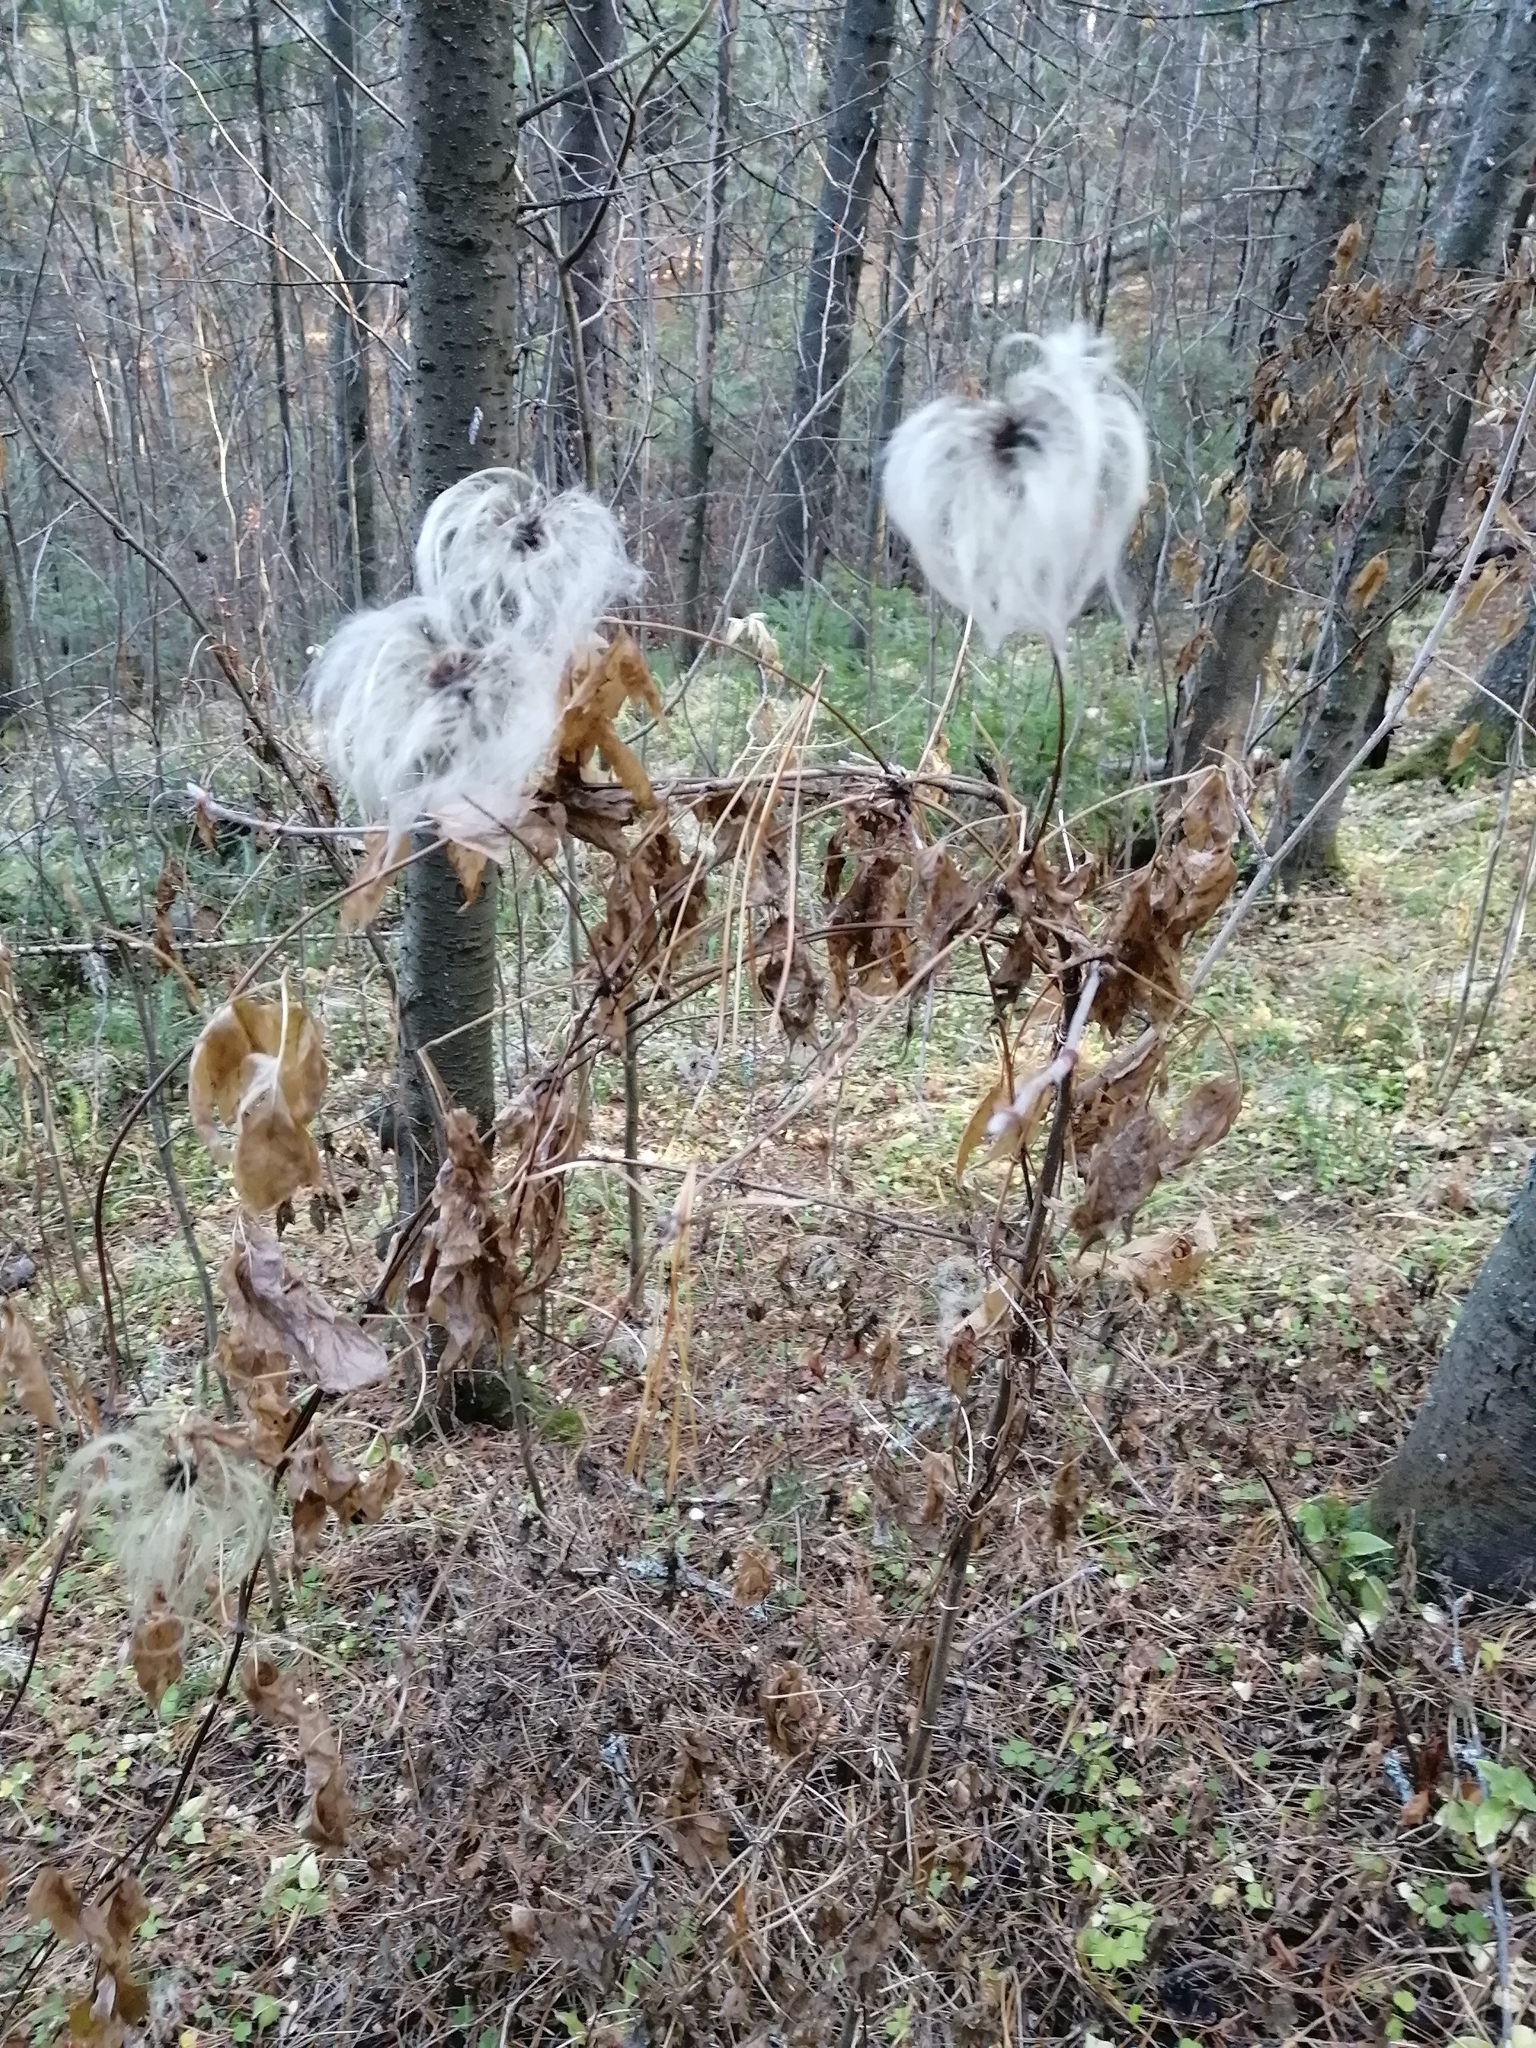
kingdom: Plantae
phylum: Tracheophyta
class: Magnoliopsida
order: Ranunculales
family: Ranunculaceae
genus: Clematis
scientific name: Clematis sibirica
